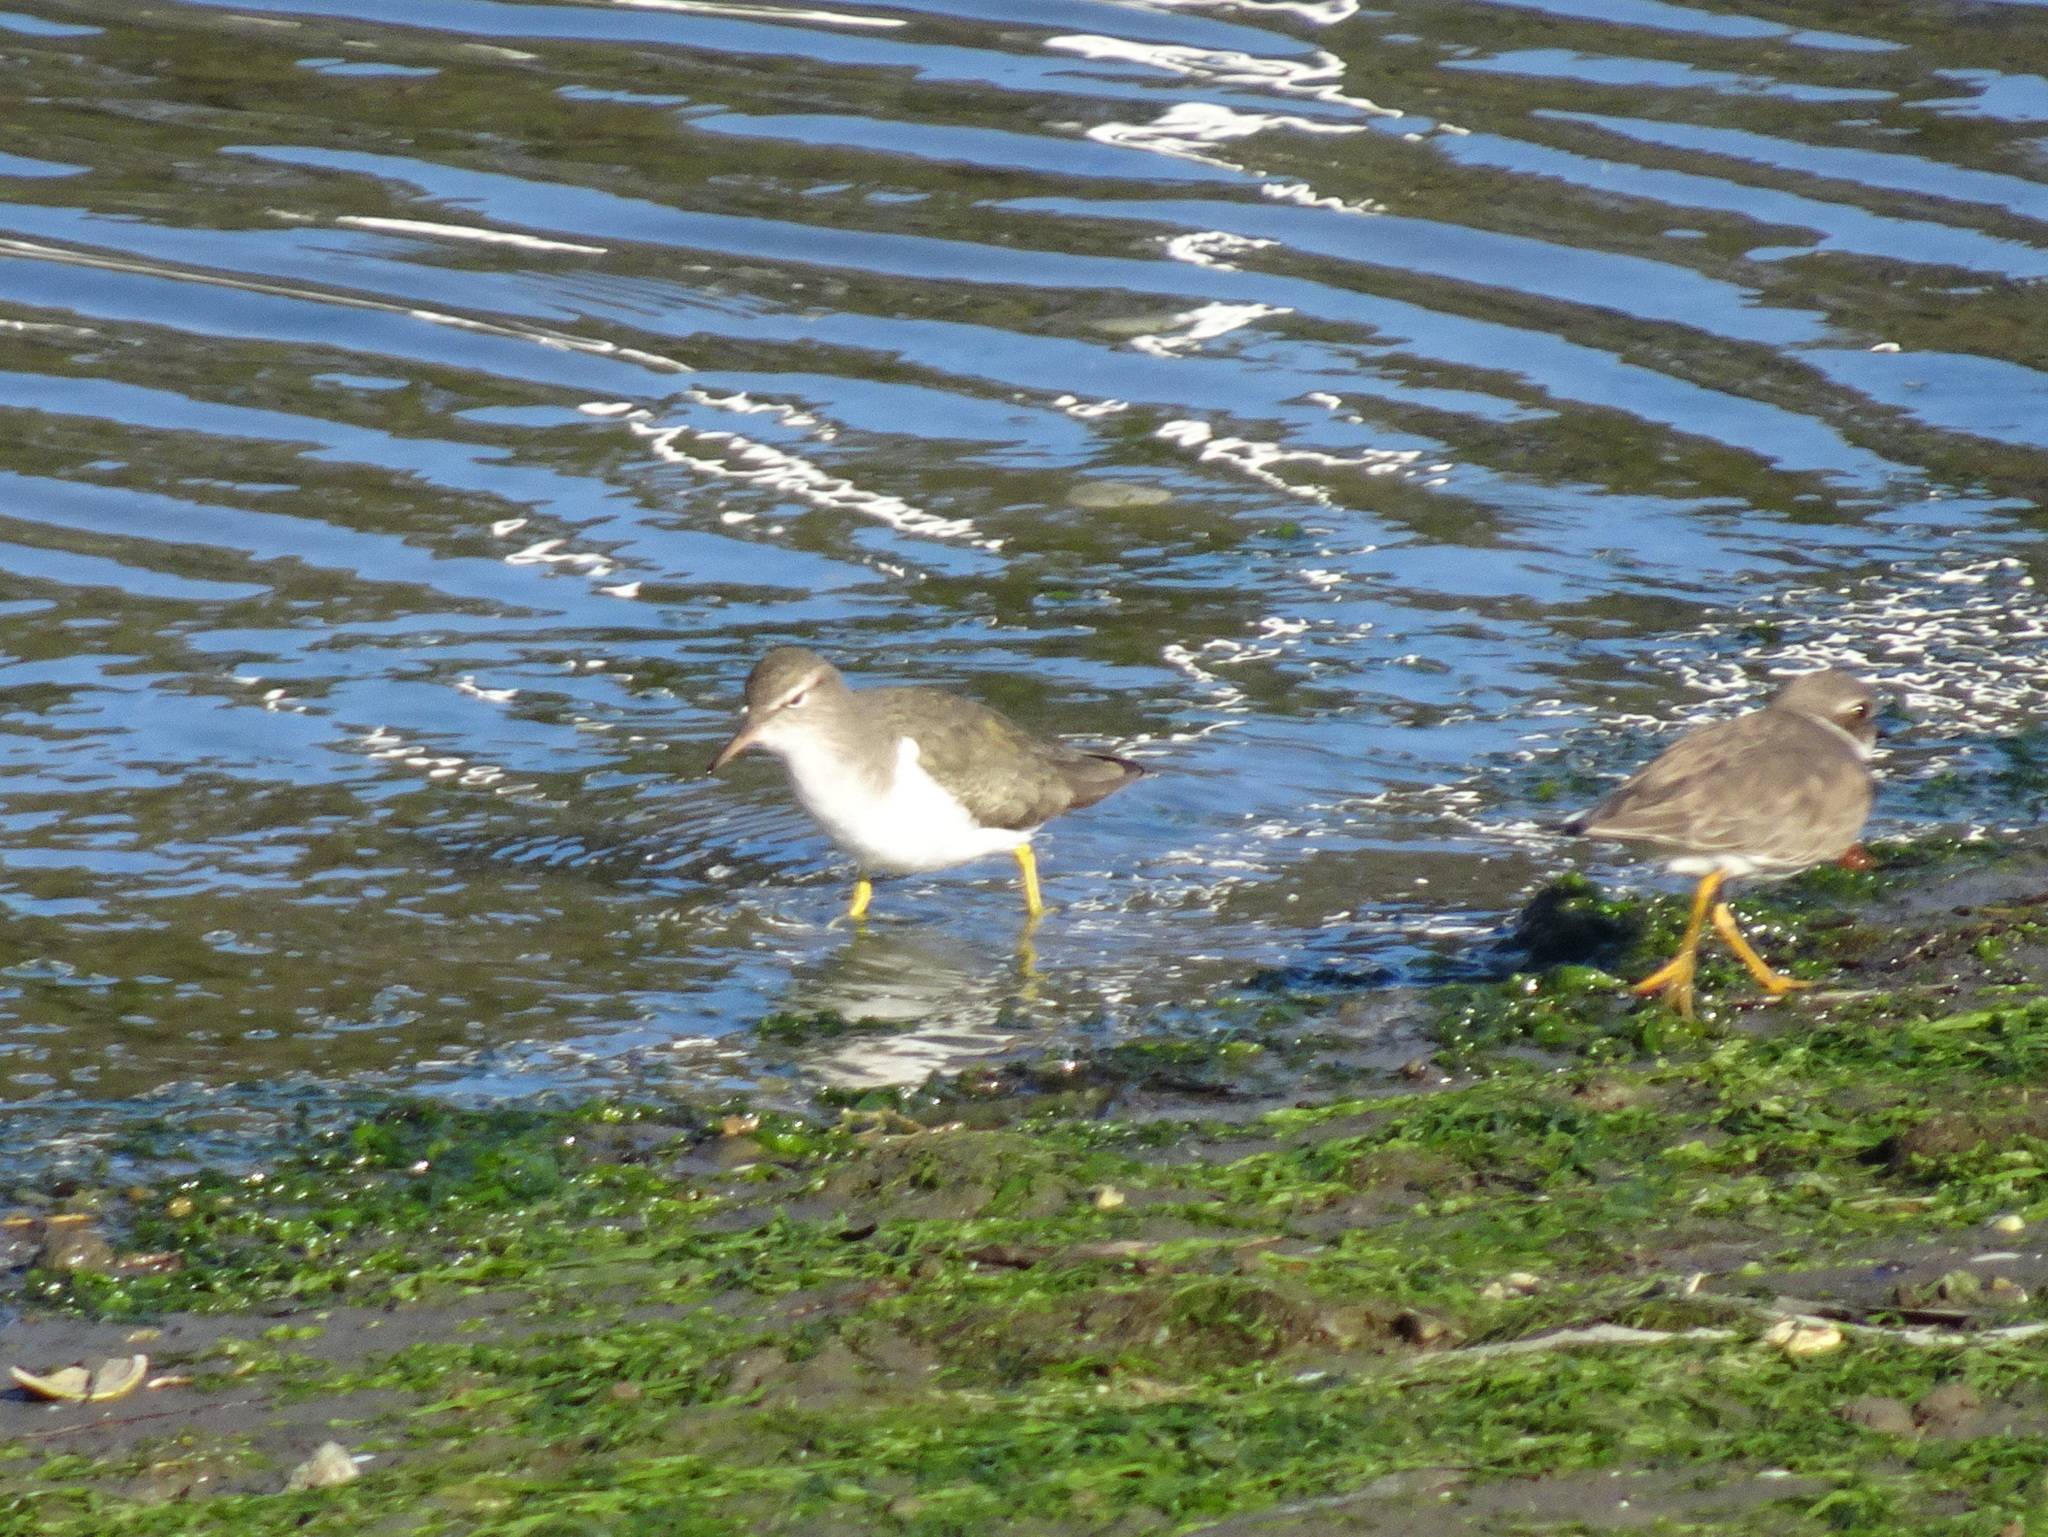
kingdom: Animalia
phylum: Chordata
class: Aves
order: Charadriiformes
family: Scolopacidae
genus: Actitis
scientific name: Actitis macularius
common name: Spotted sandpiper
